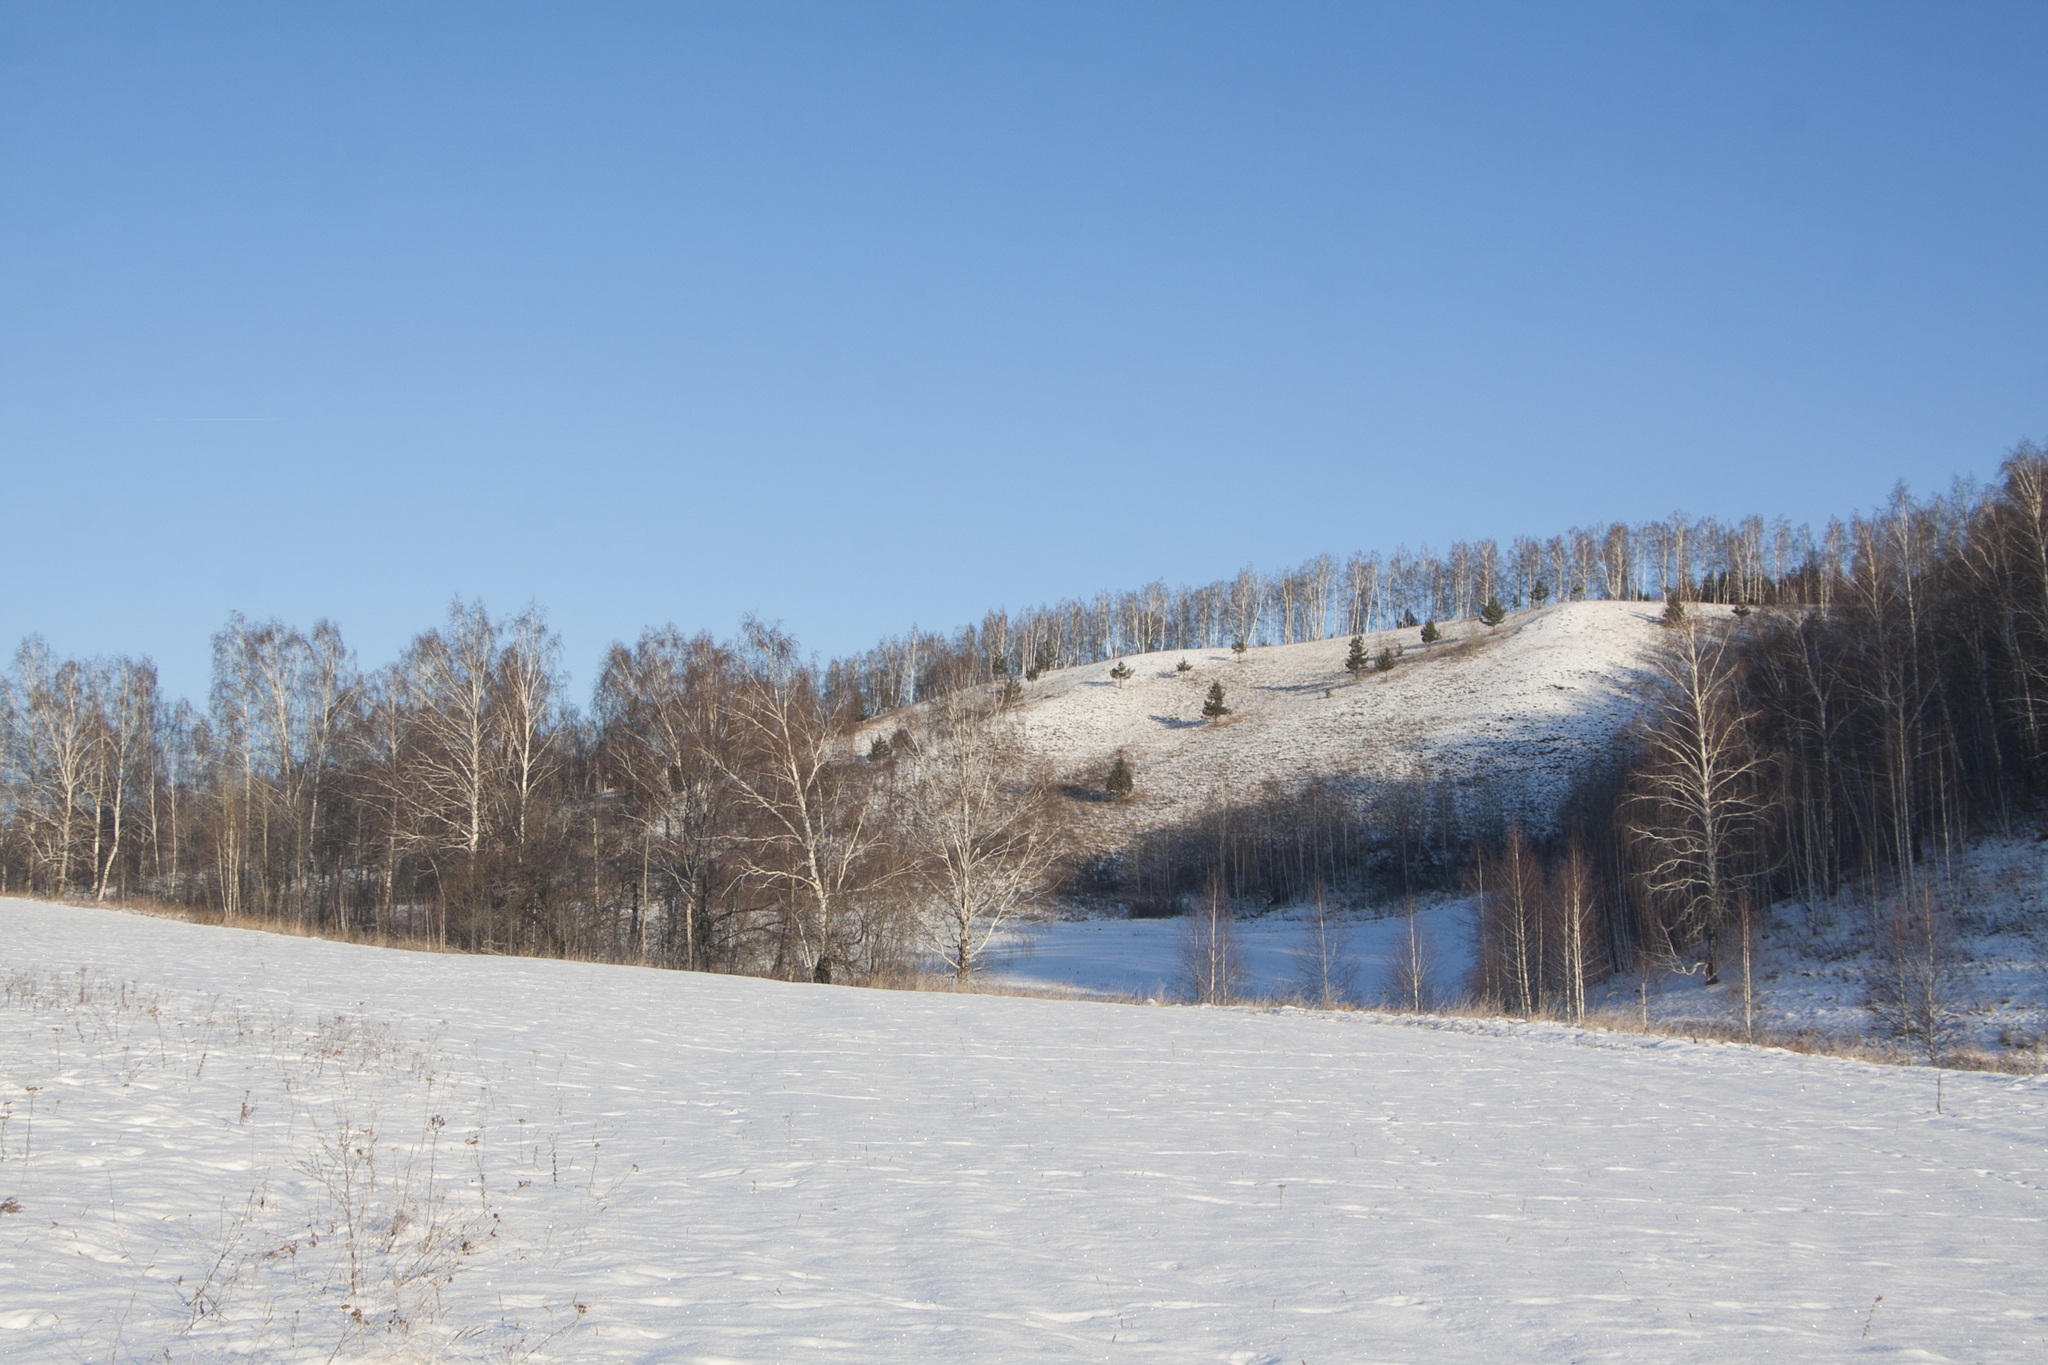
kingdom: Plantae
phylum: Tracheophyta
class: Magnoliopsida
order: Fagales
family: Betulaceae
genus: Betula
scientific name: Betula pendula
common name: Silver birch
